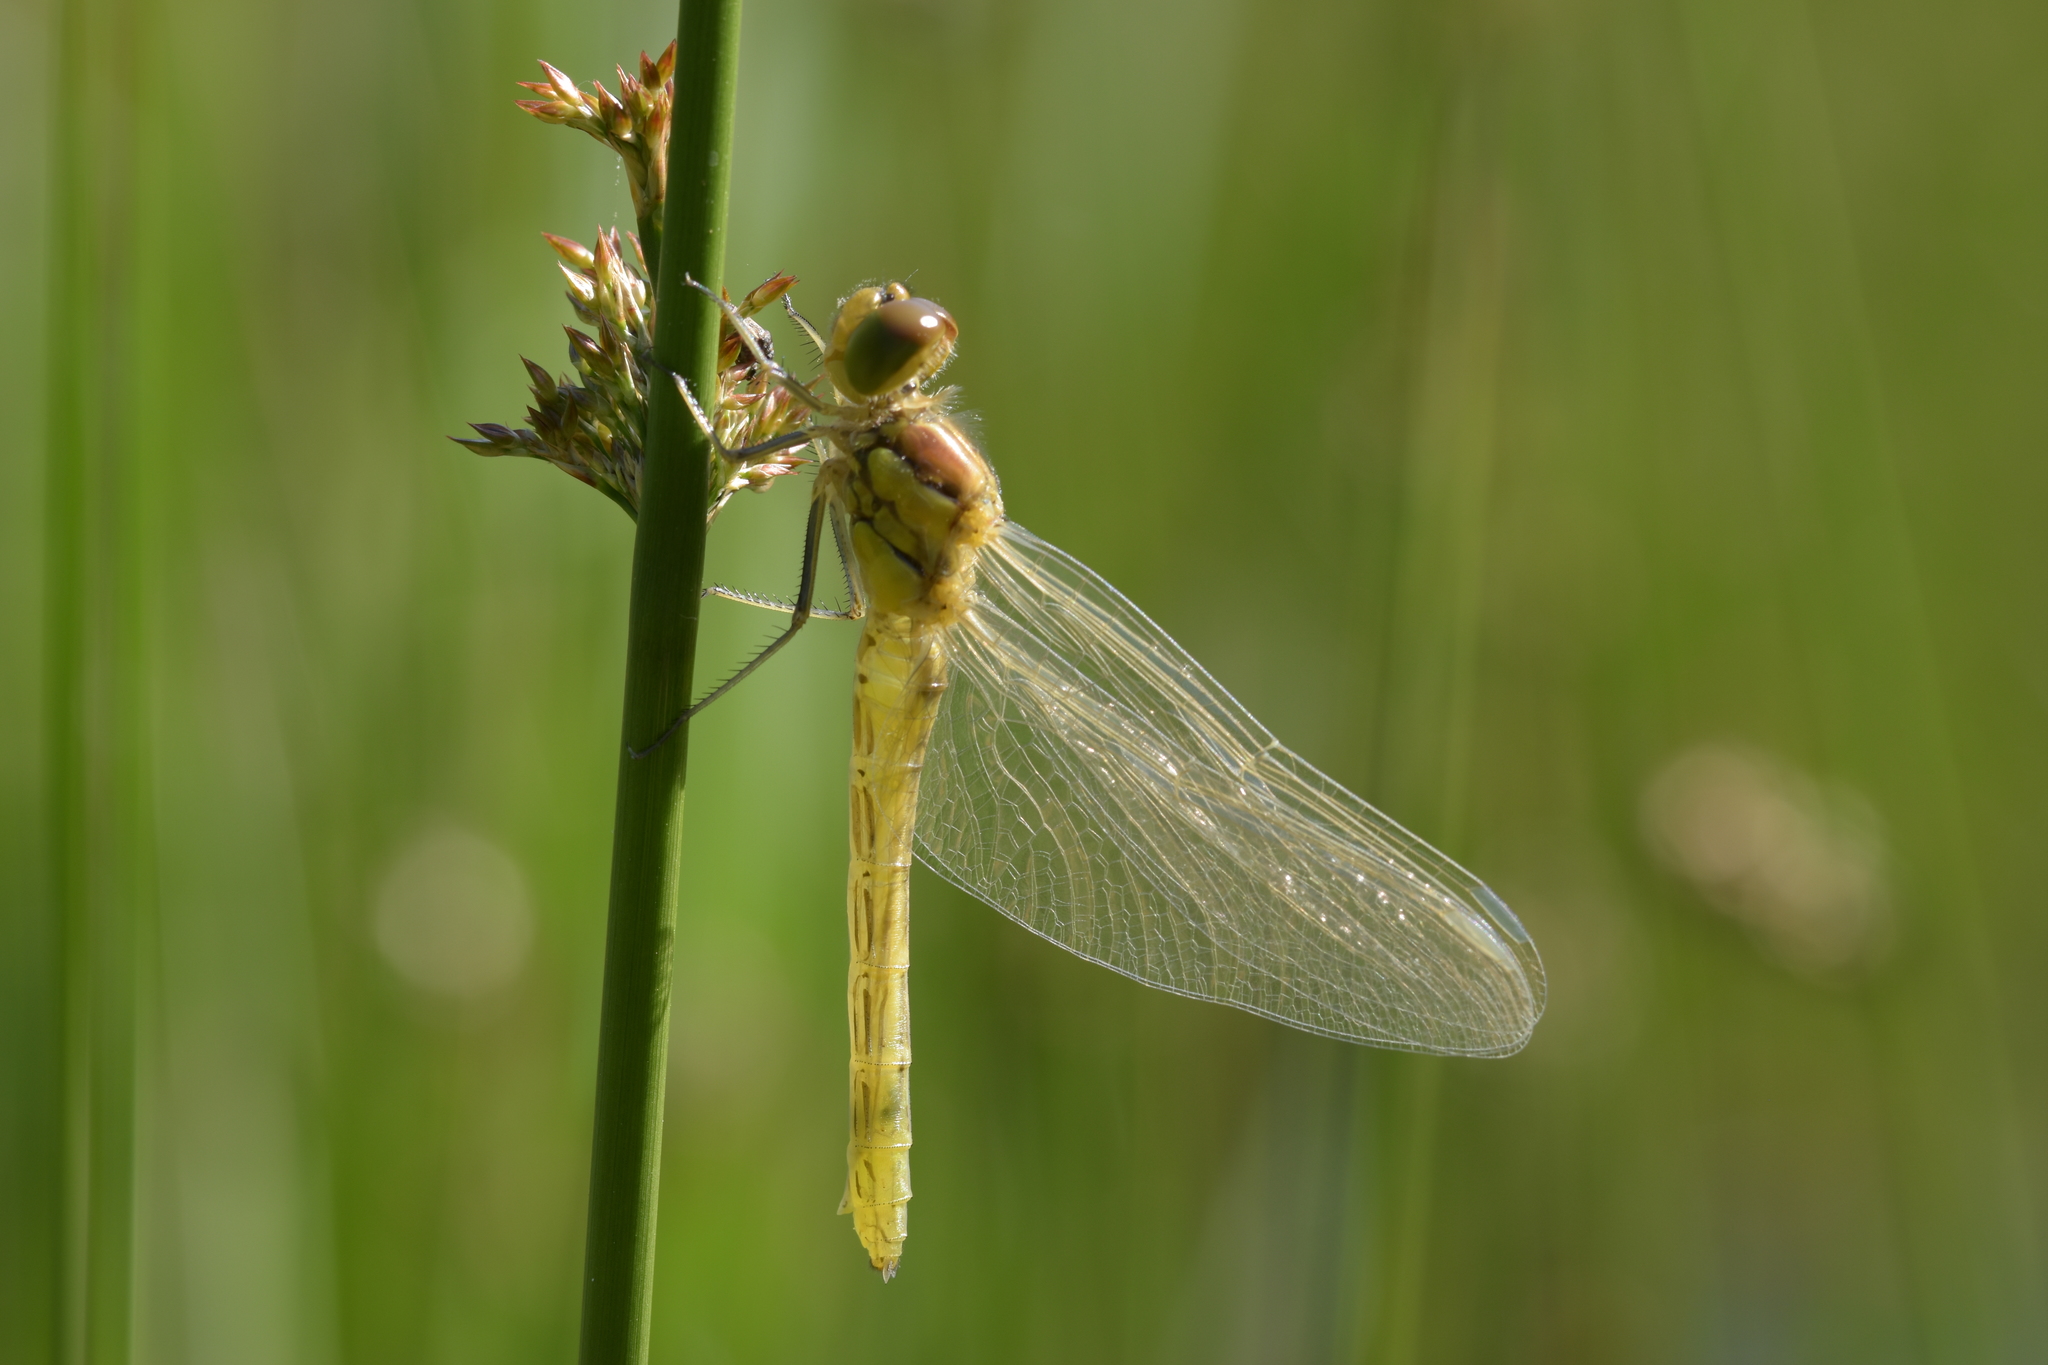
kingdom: Animalia
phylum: Arthropoda
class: Insecta
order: Odonata
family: Libellulidae
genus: Sympetrum
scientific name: Sympetrum striolatum
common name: Common darter
